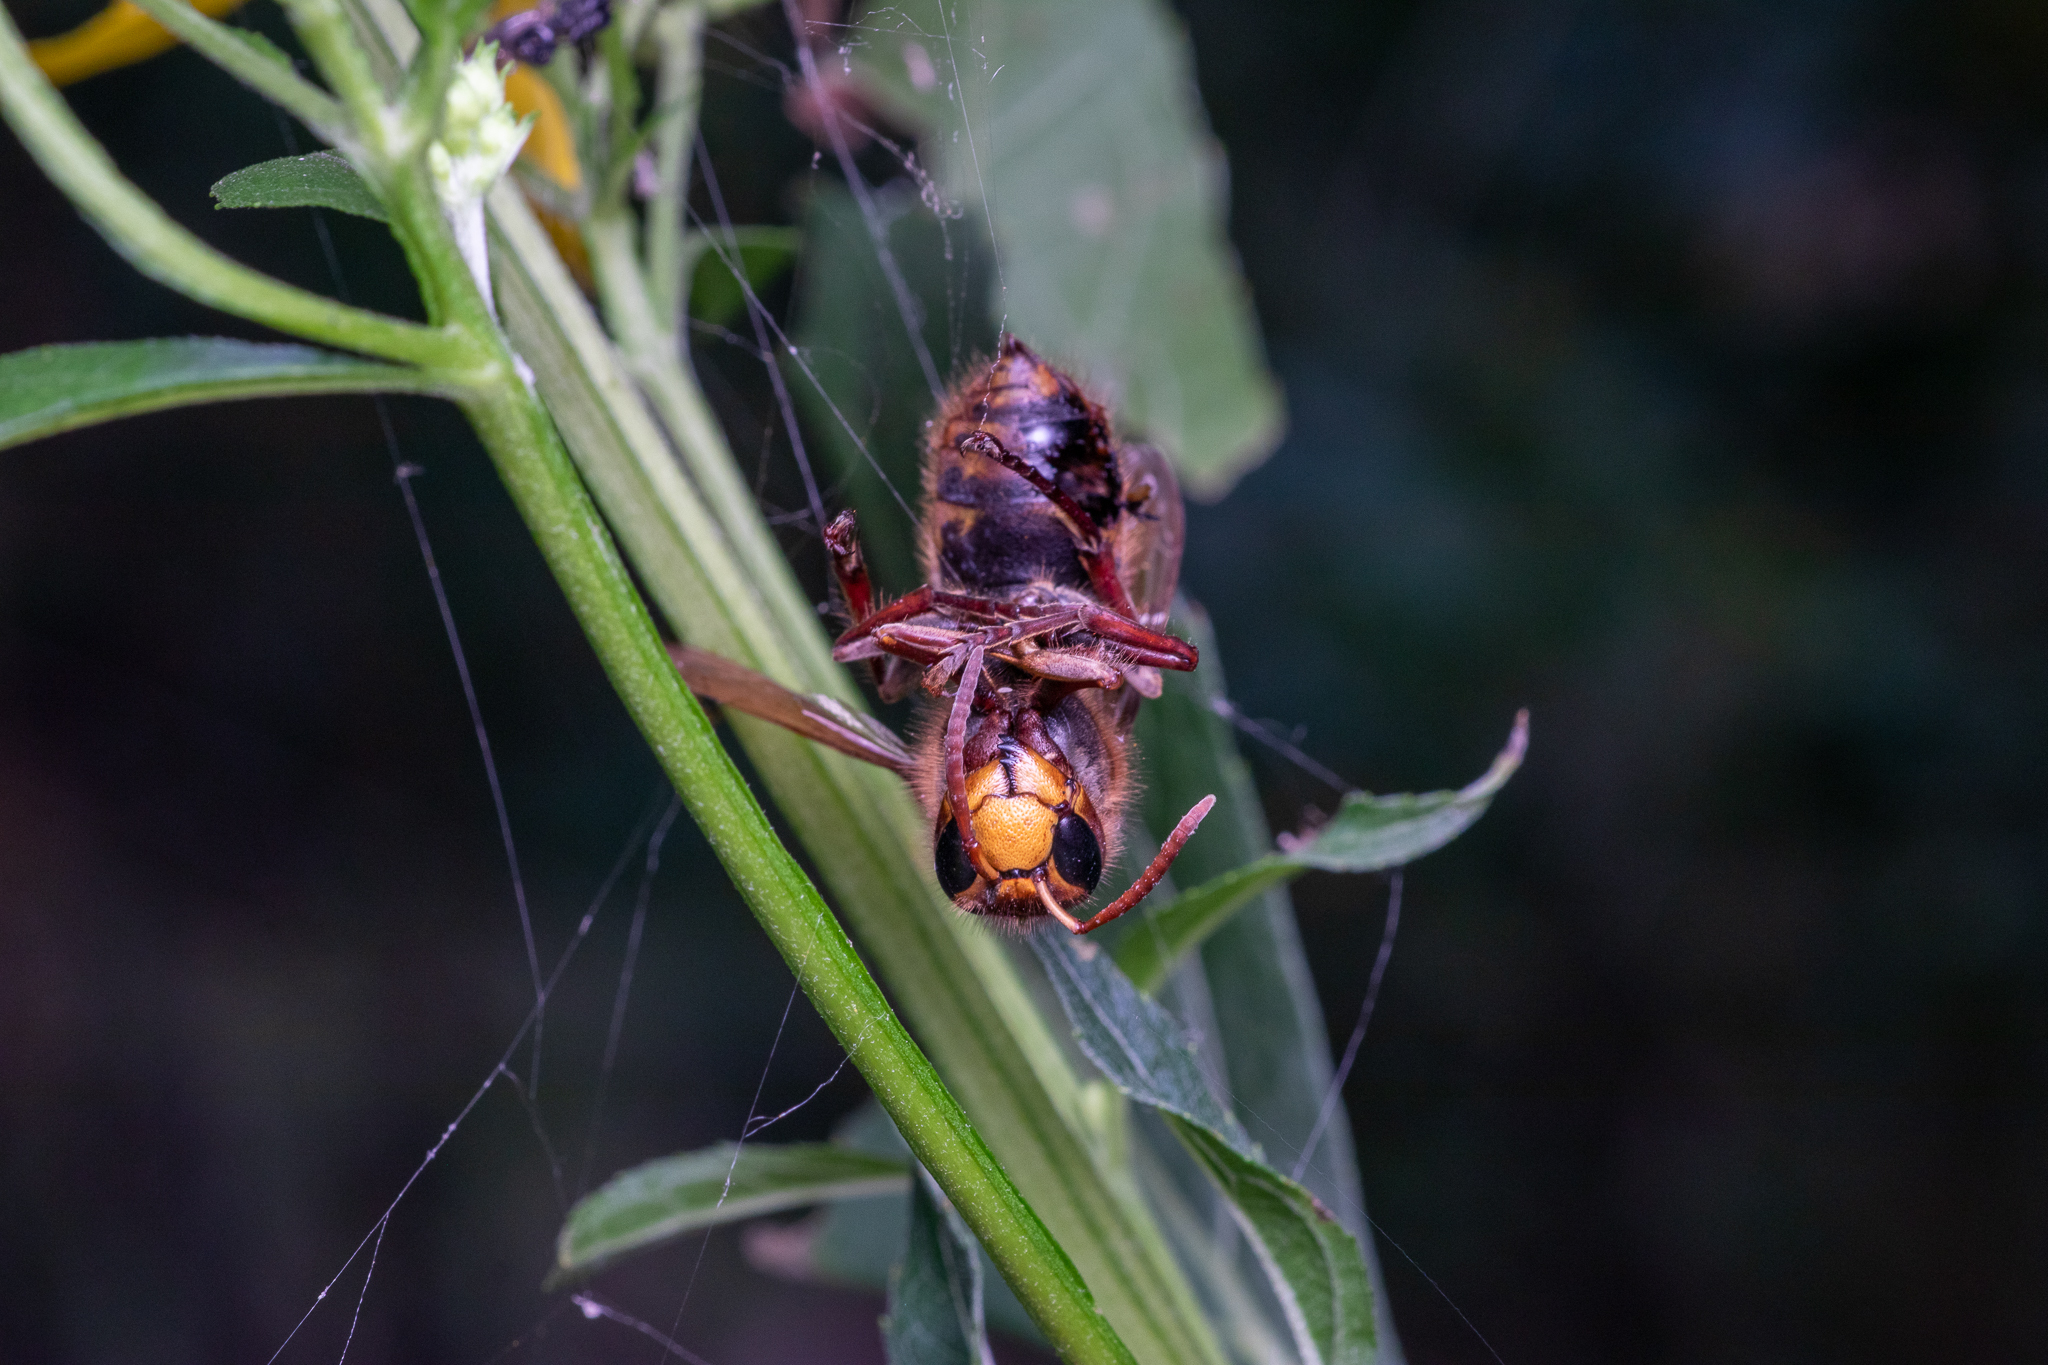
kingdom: Animalia
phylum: Arthropoda
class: Insecta
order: Hymenoptera
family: Vespidae
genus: Vespa
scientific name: Vespa crabro
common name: Hornet
